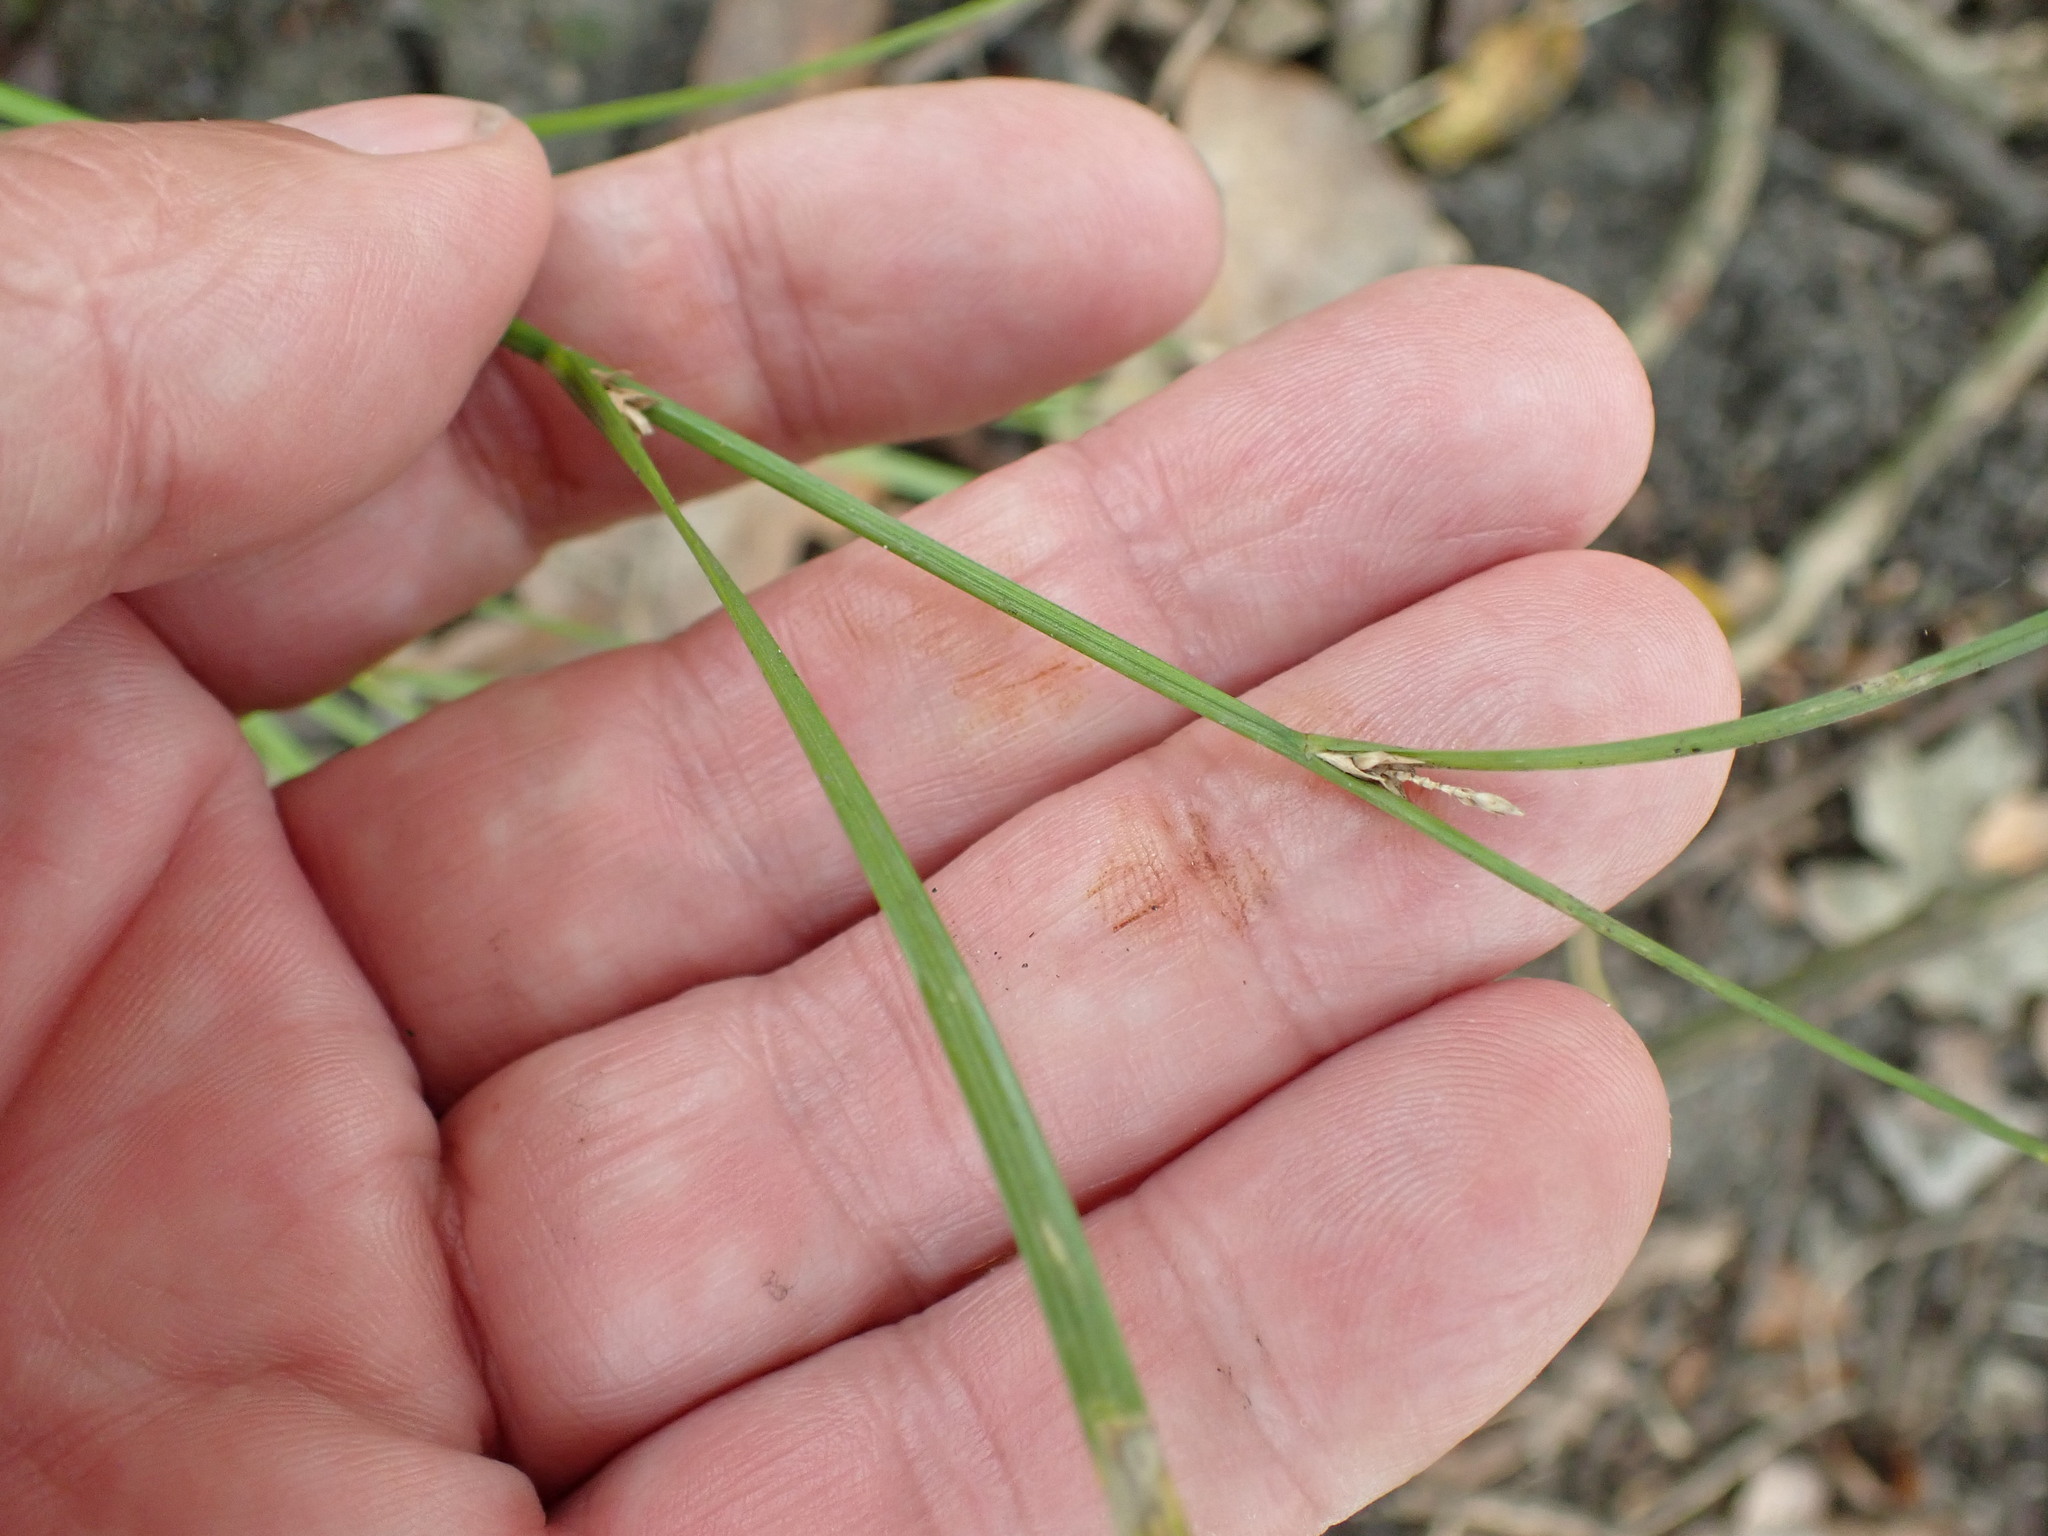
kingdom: Plantae
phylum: Tracheophyta
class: Liliopsida
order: Poales
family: Cyperaceae
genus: Carex
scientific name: Carex remota
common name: Remote sedge
